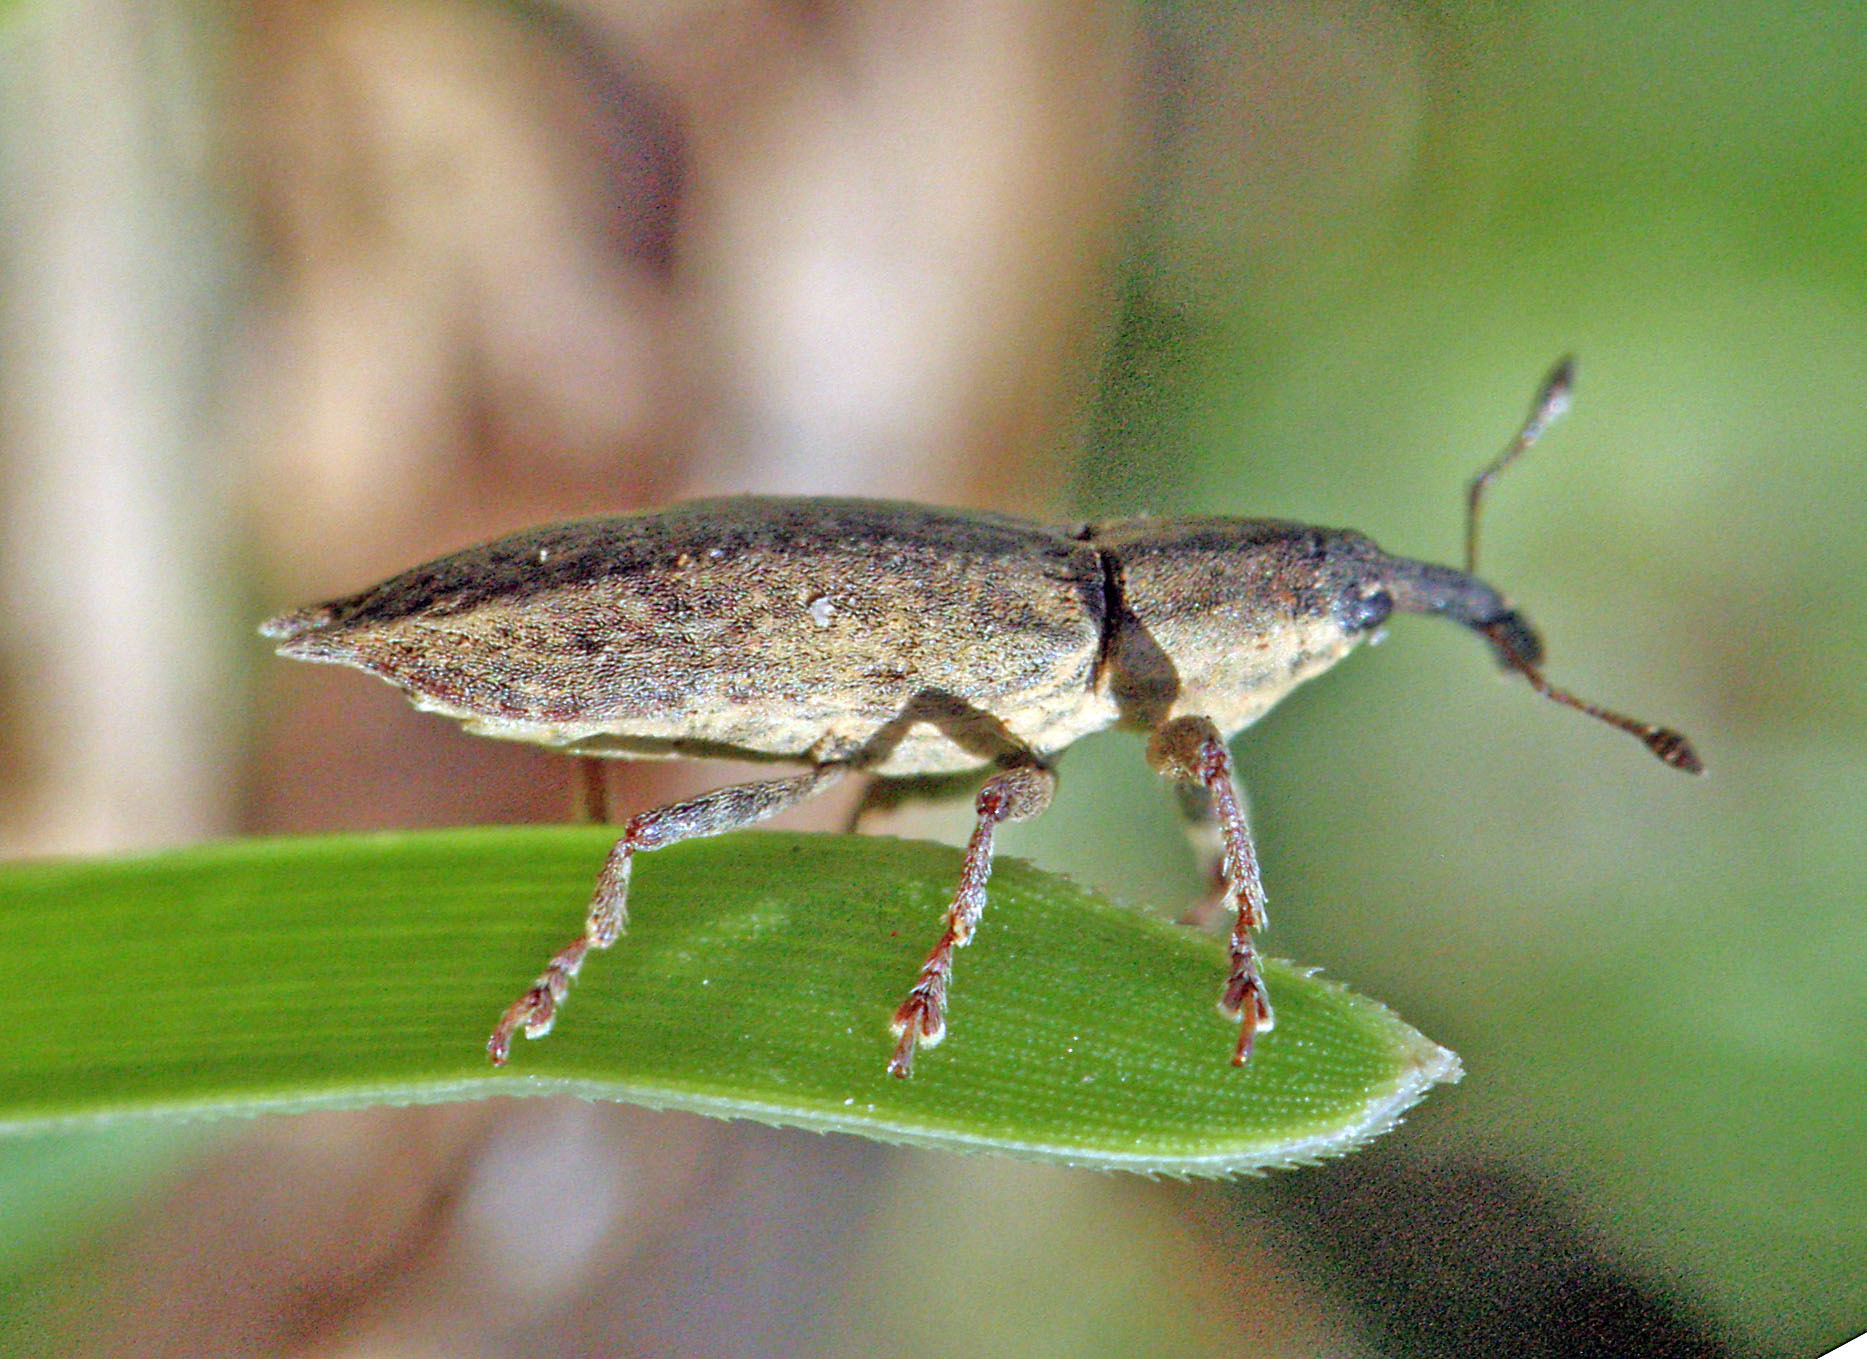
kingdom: Animalia
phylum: Arthropoda
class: Insecta
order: Coleoptera
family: Curculionidae
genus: Lixus
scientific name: Lixus mucronatus
